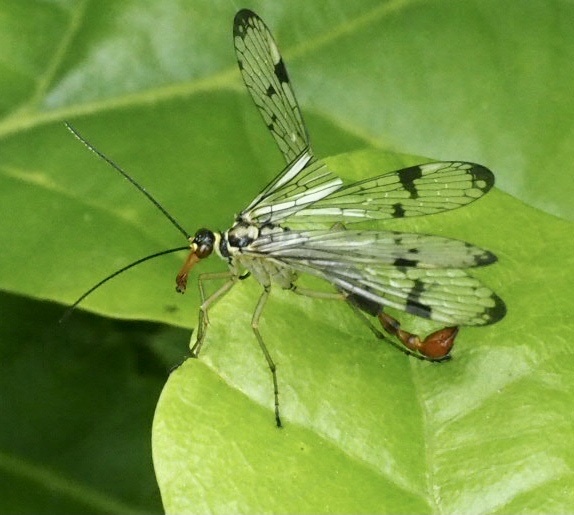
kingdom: Animalia
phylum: Arthropoda
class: Insecta
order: Mecoptera
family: Panorpidae
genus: Panorpa
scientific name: Panorpa communis
